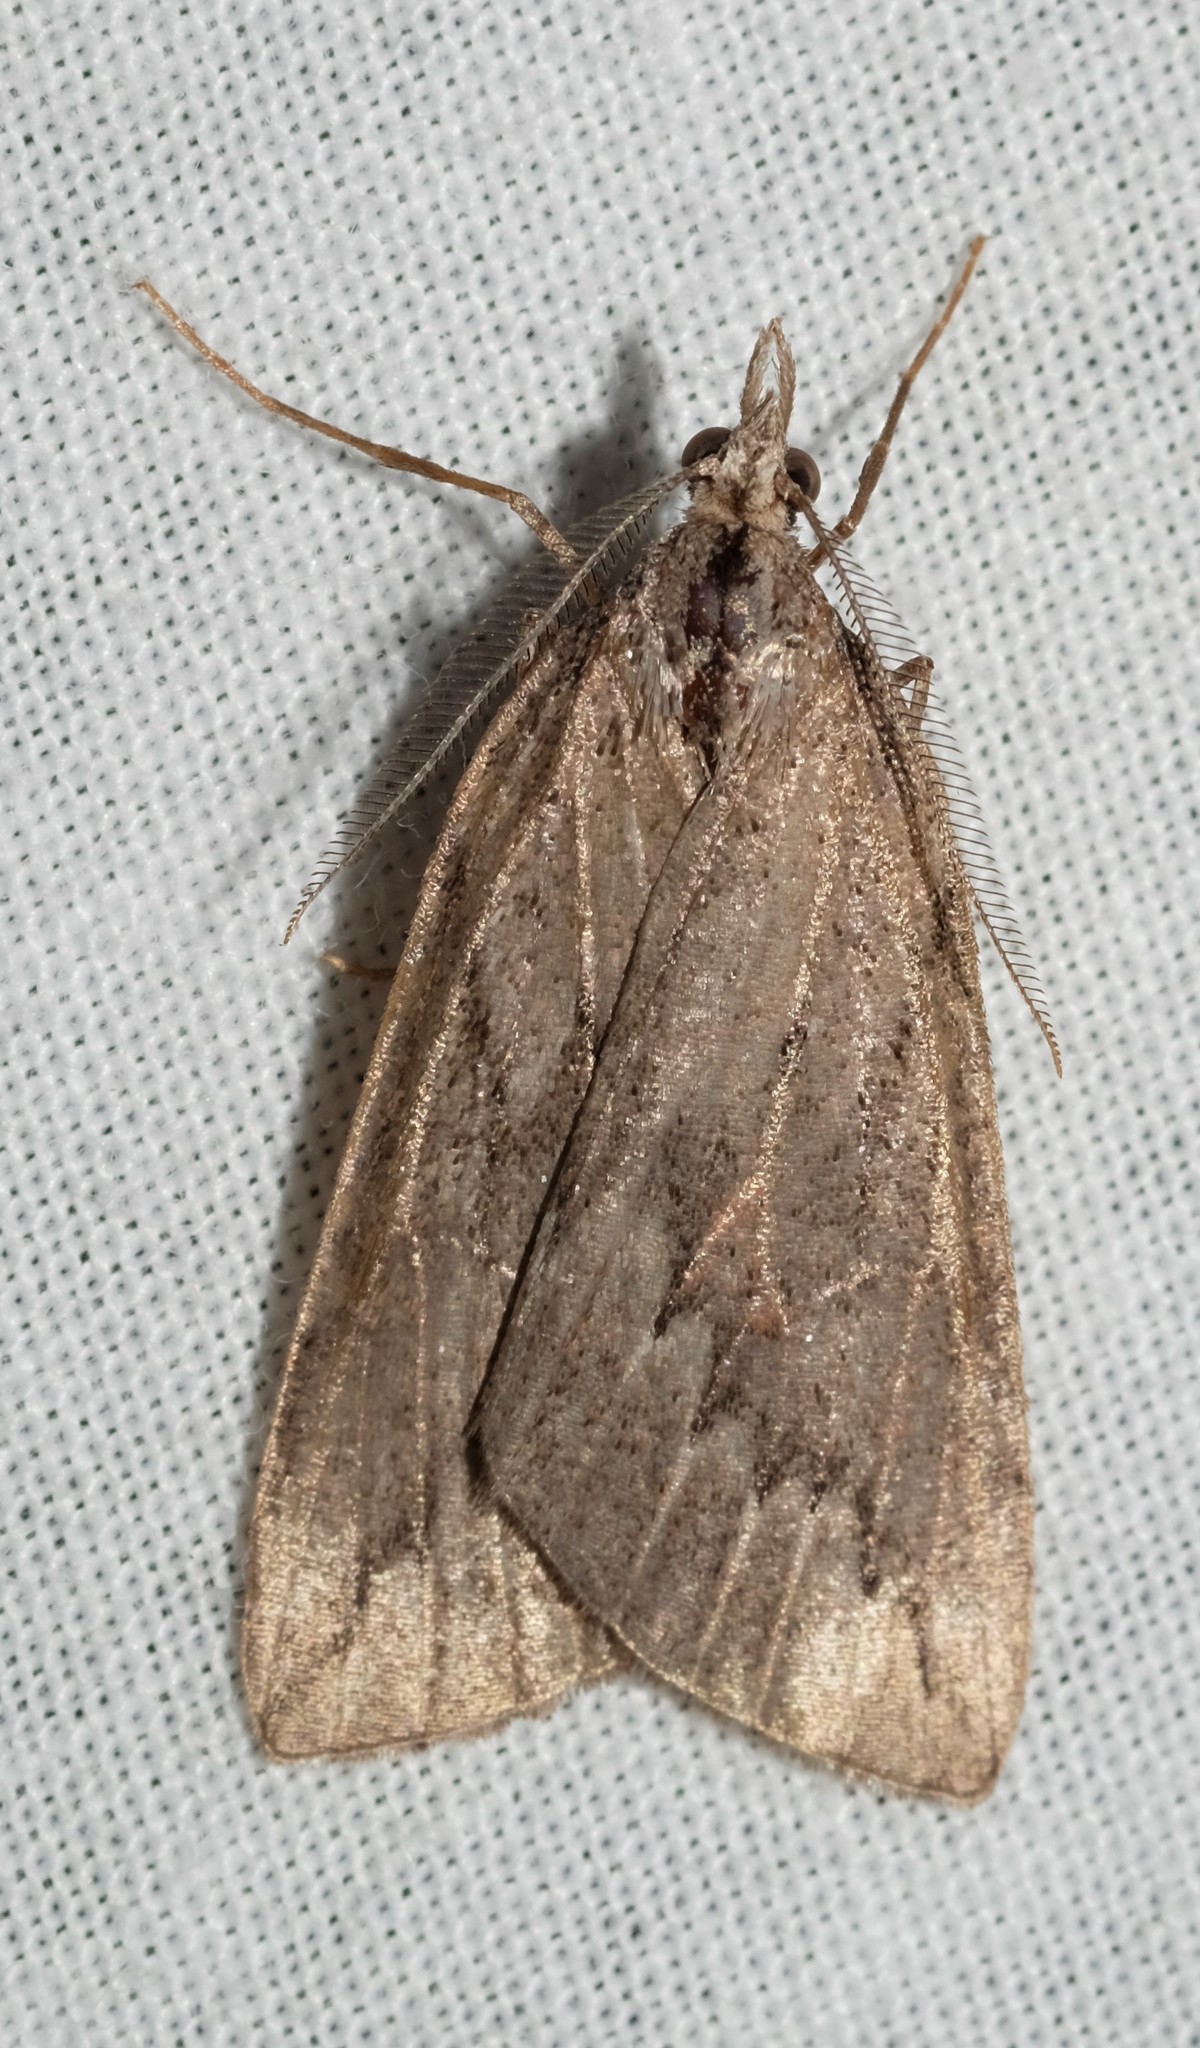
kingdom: Animalia
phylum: Arthropoda
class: Insecta
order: Lepidoptera
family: Geometridae
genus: Rhynchopsota
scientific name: Rhynchopsota rhyncophora
